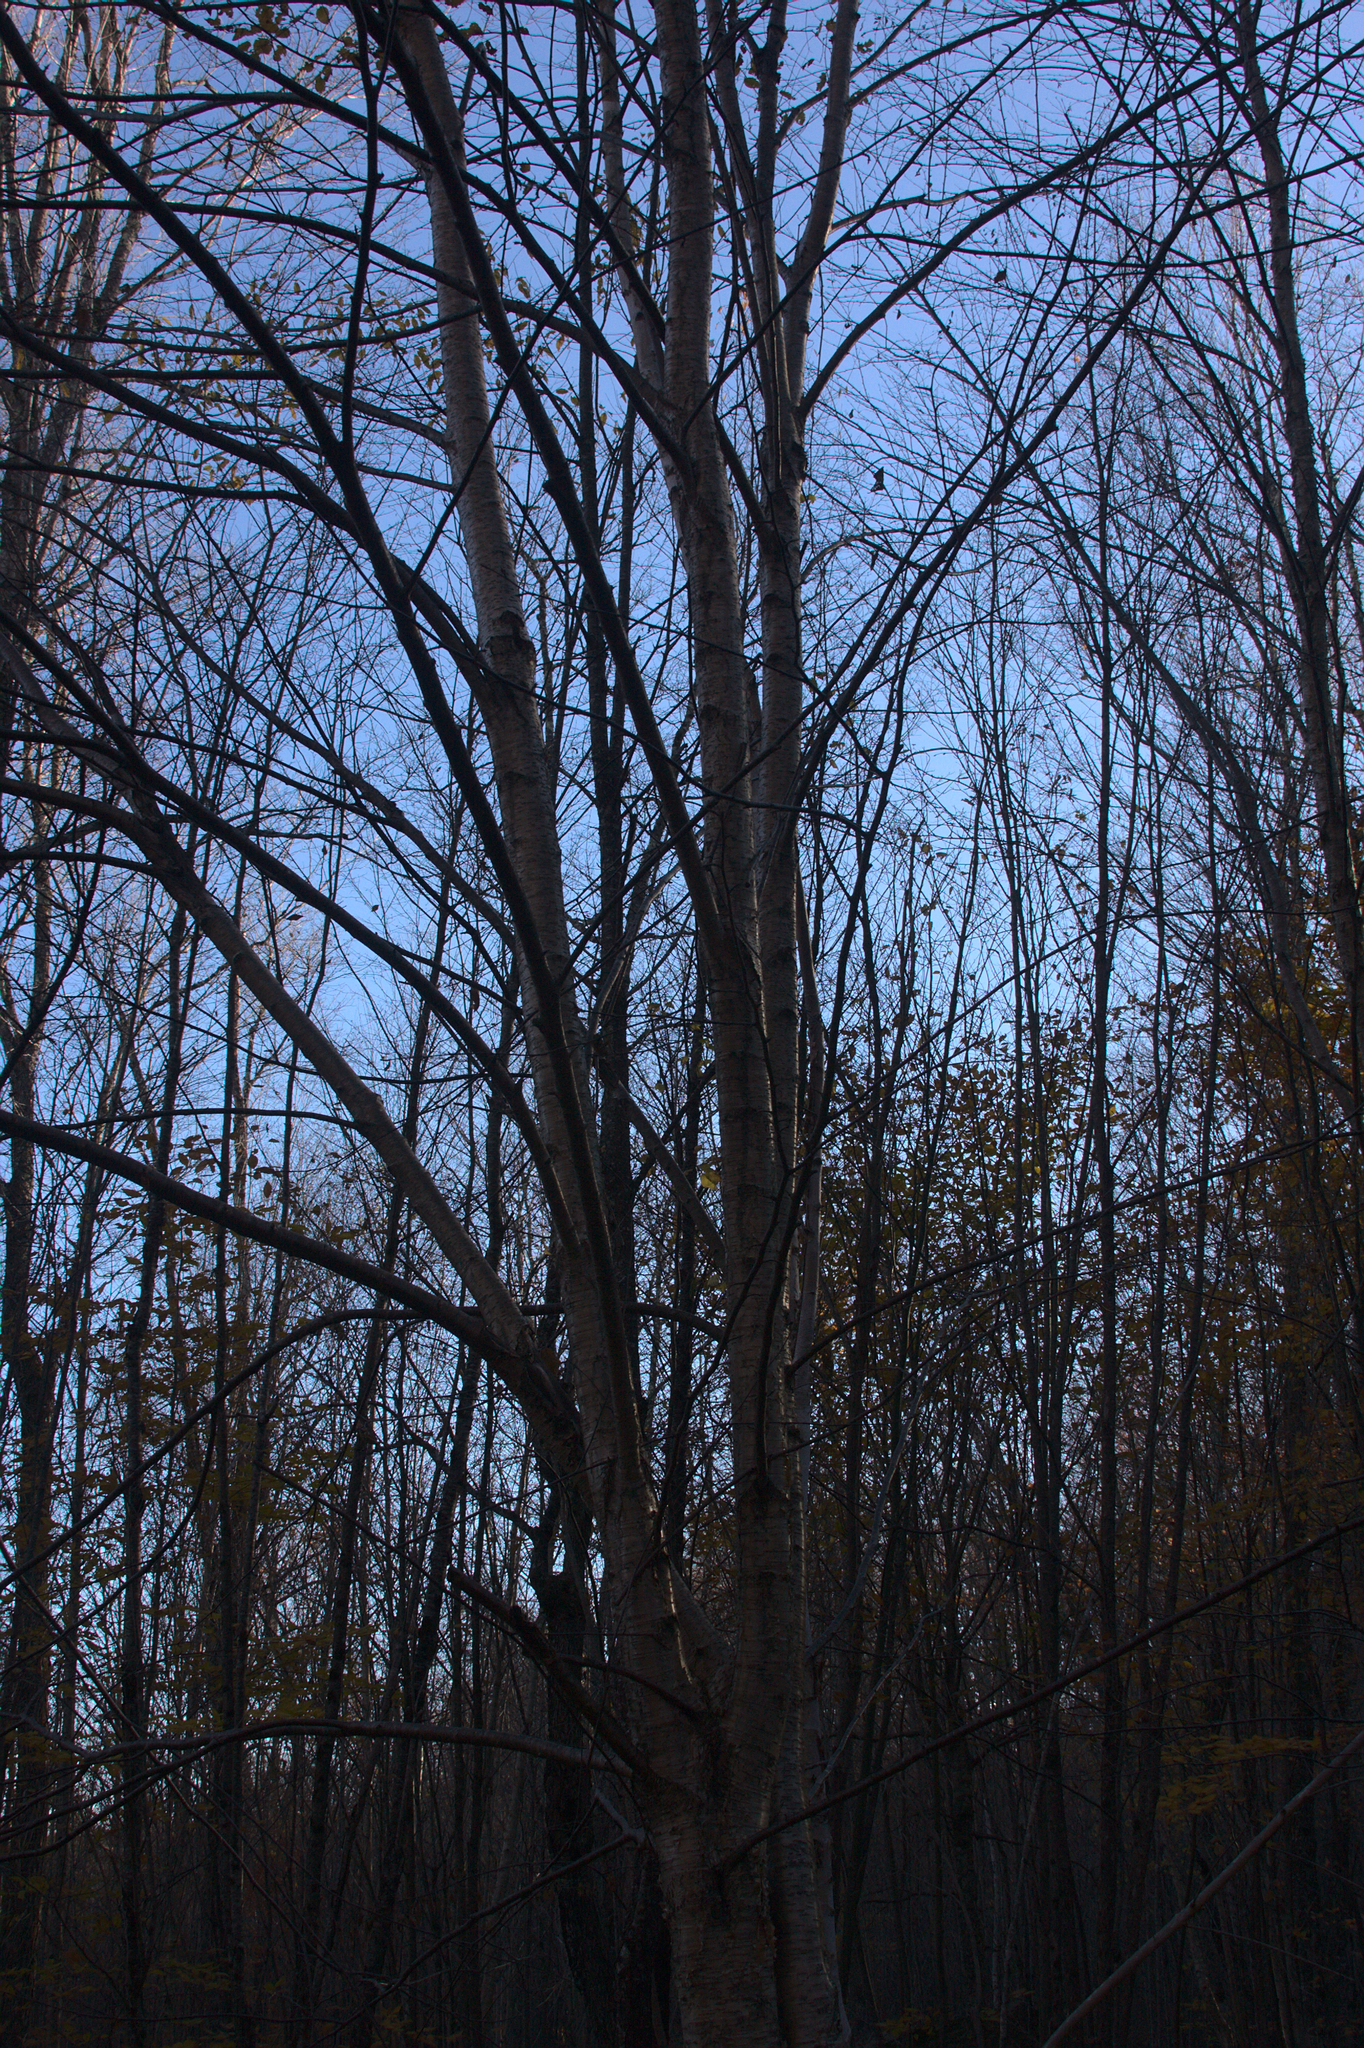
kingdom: Plantae
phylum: Tracheophyta
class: Magnoliopsida
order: Fagales
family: Betulaceae
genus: Betula
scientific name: Betula alleghaniensis
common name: Yellow birch
